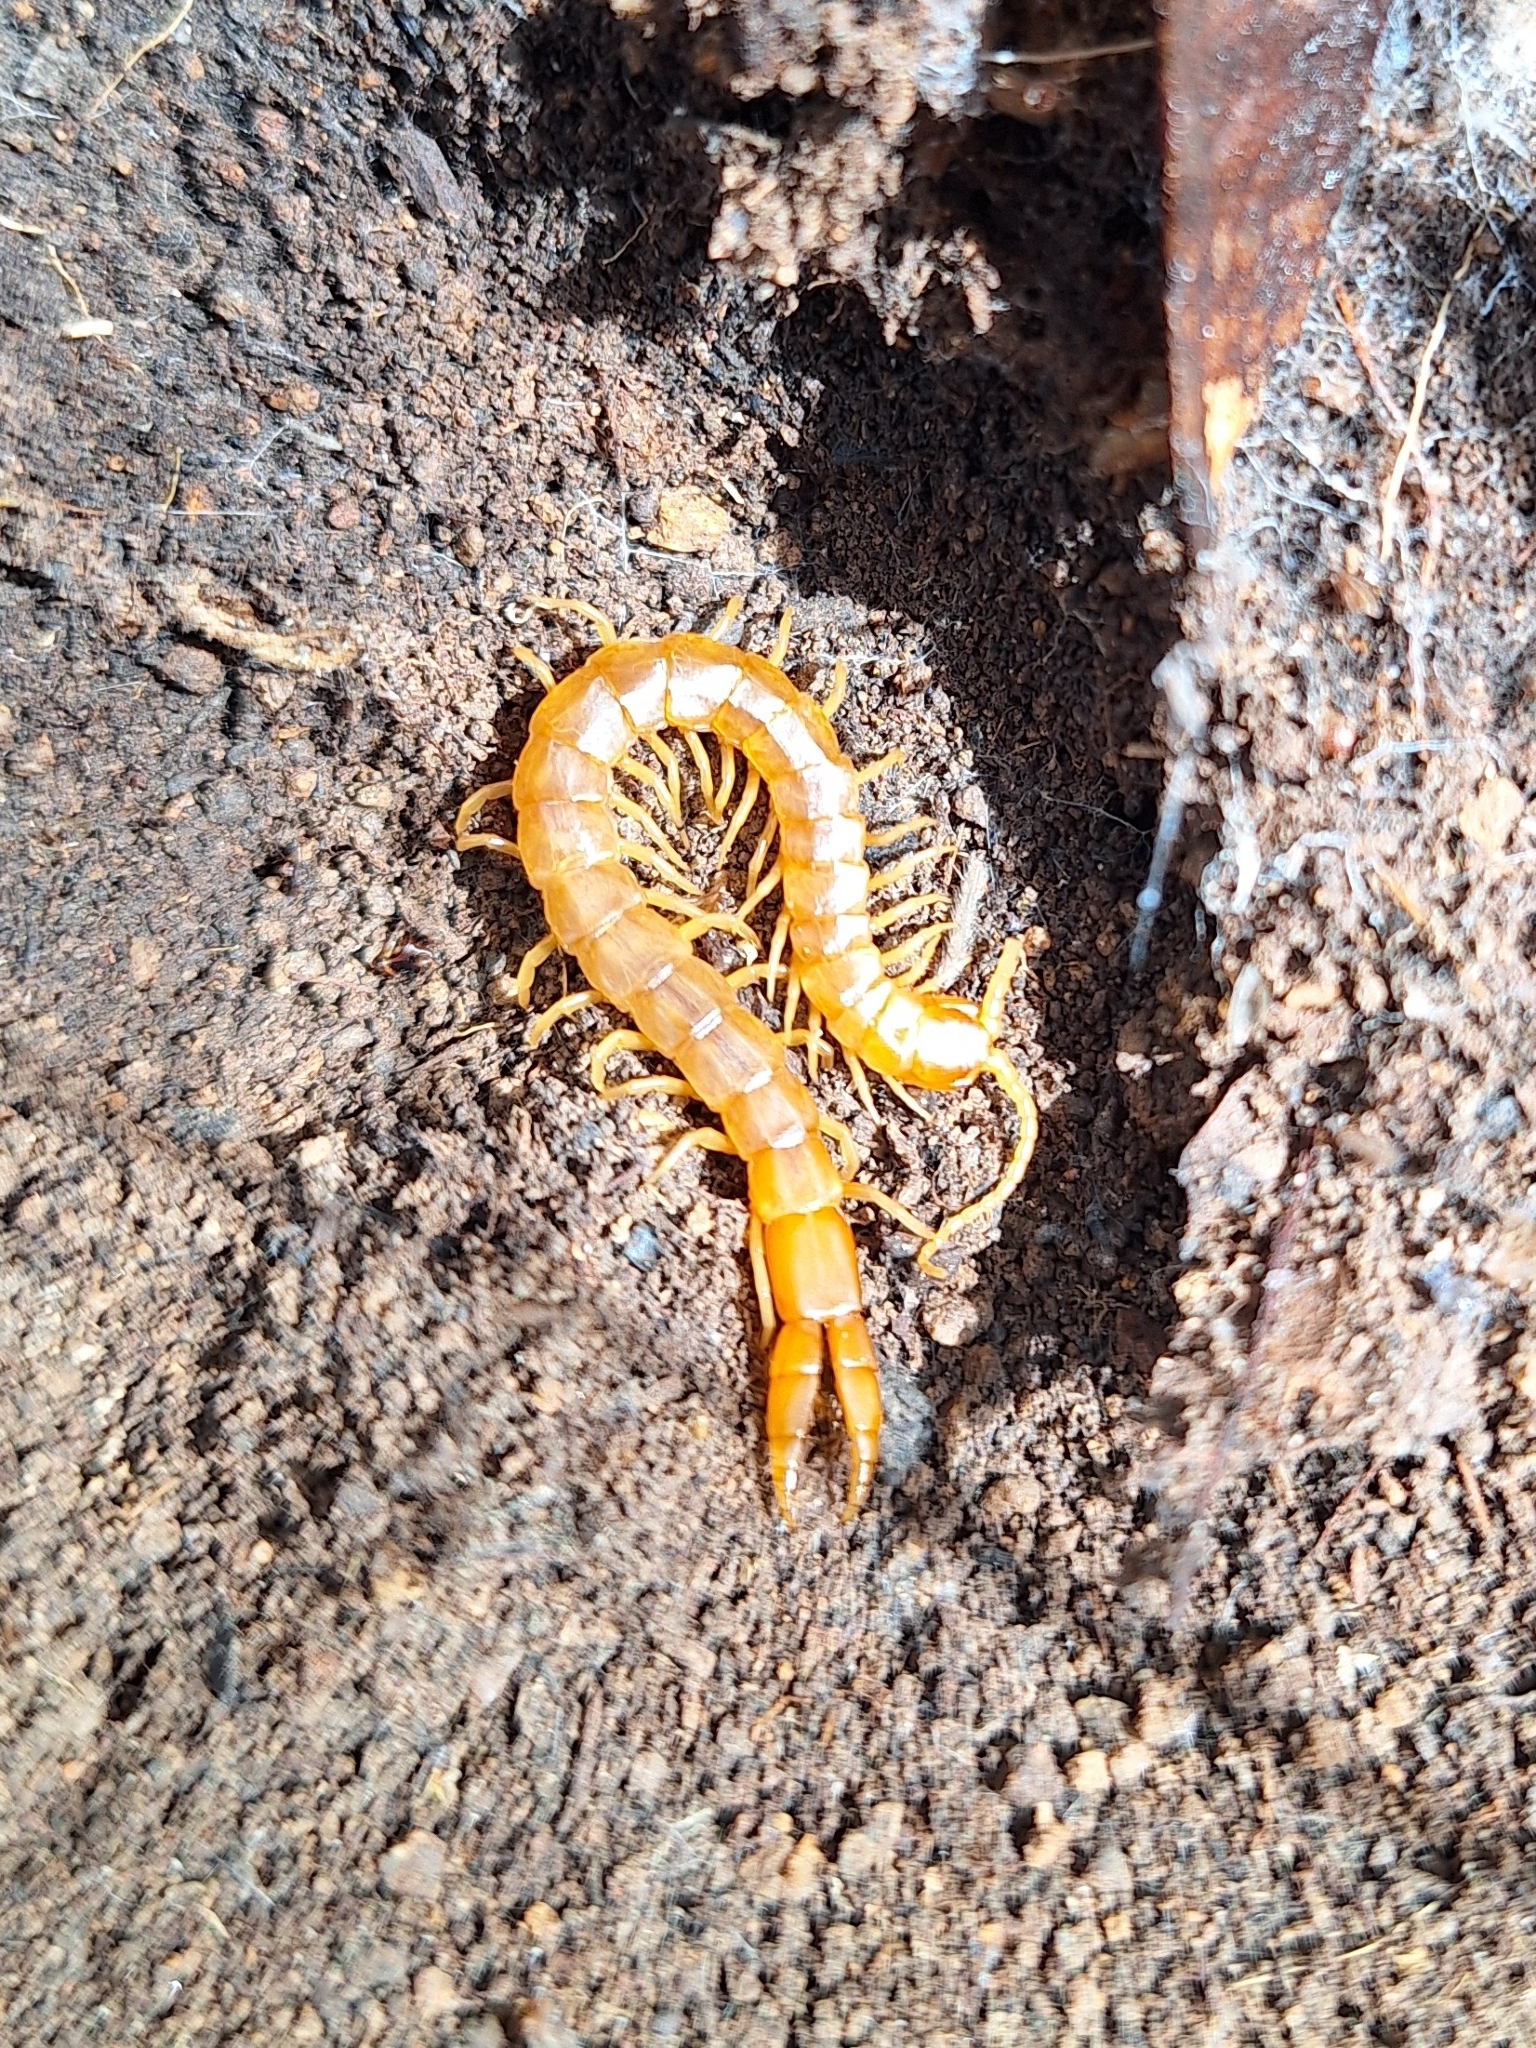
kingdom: Animalia
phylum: Arthropoda
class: Chilopoda
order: Scolopendromorpha
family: Cryptopidae
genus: Theatops
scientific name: Theatops posticus
